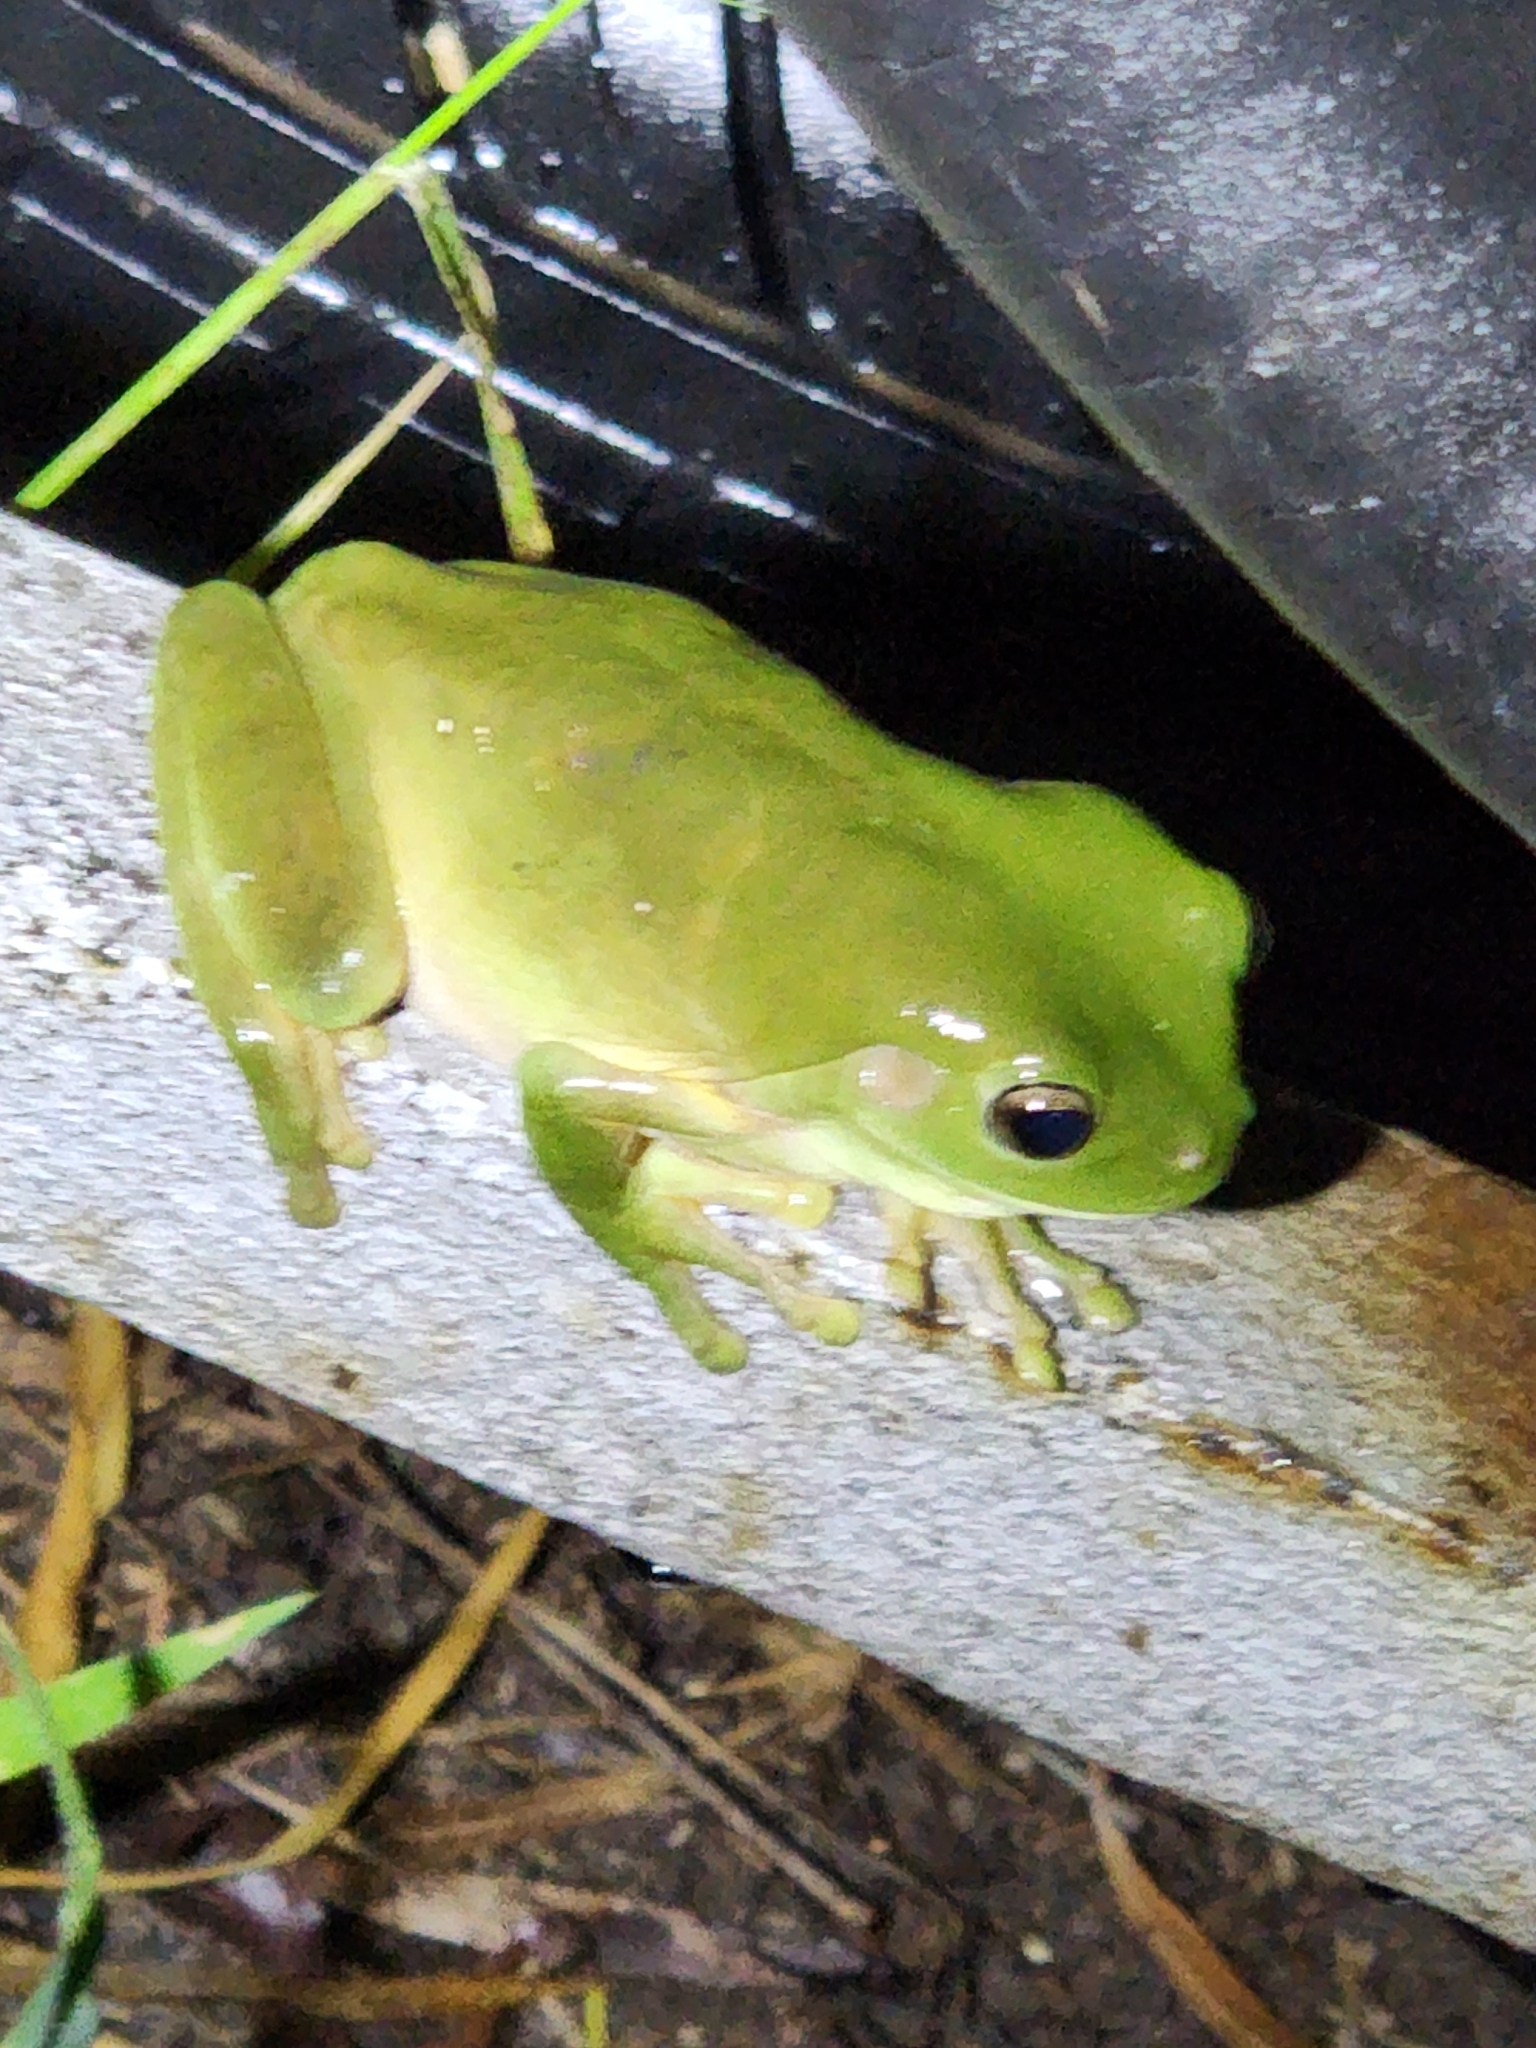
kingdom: Animalia
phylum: Chordata
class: Amphibia
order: Anura
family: Pelodryadidae
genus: Ranoidea
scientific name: Ranoidea caerulea
